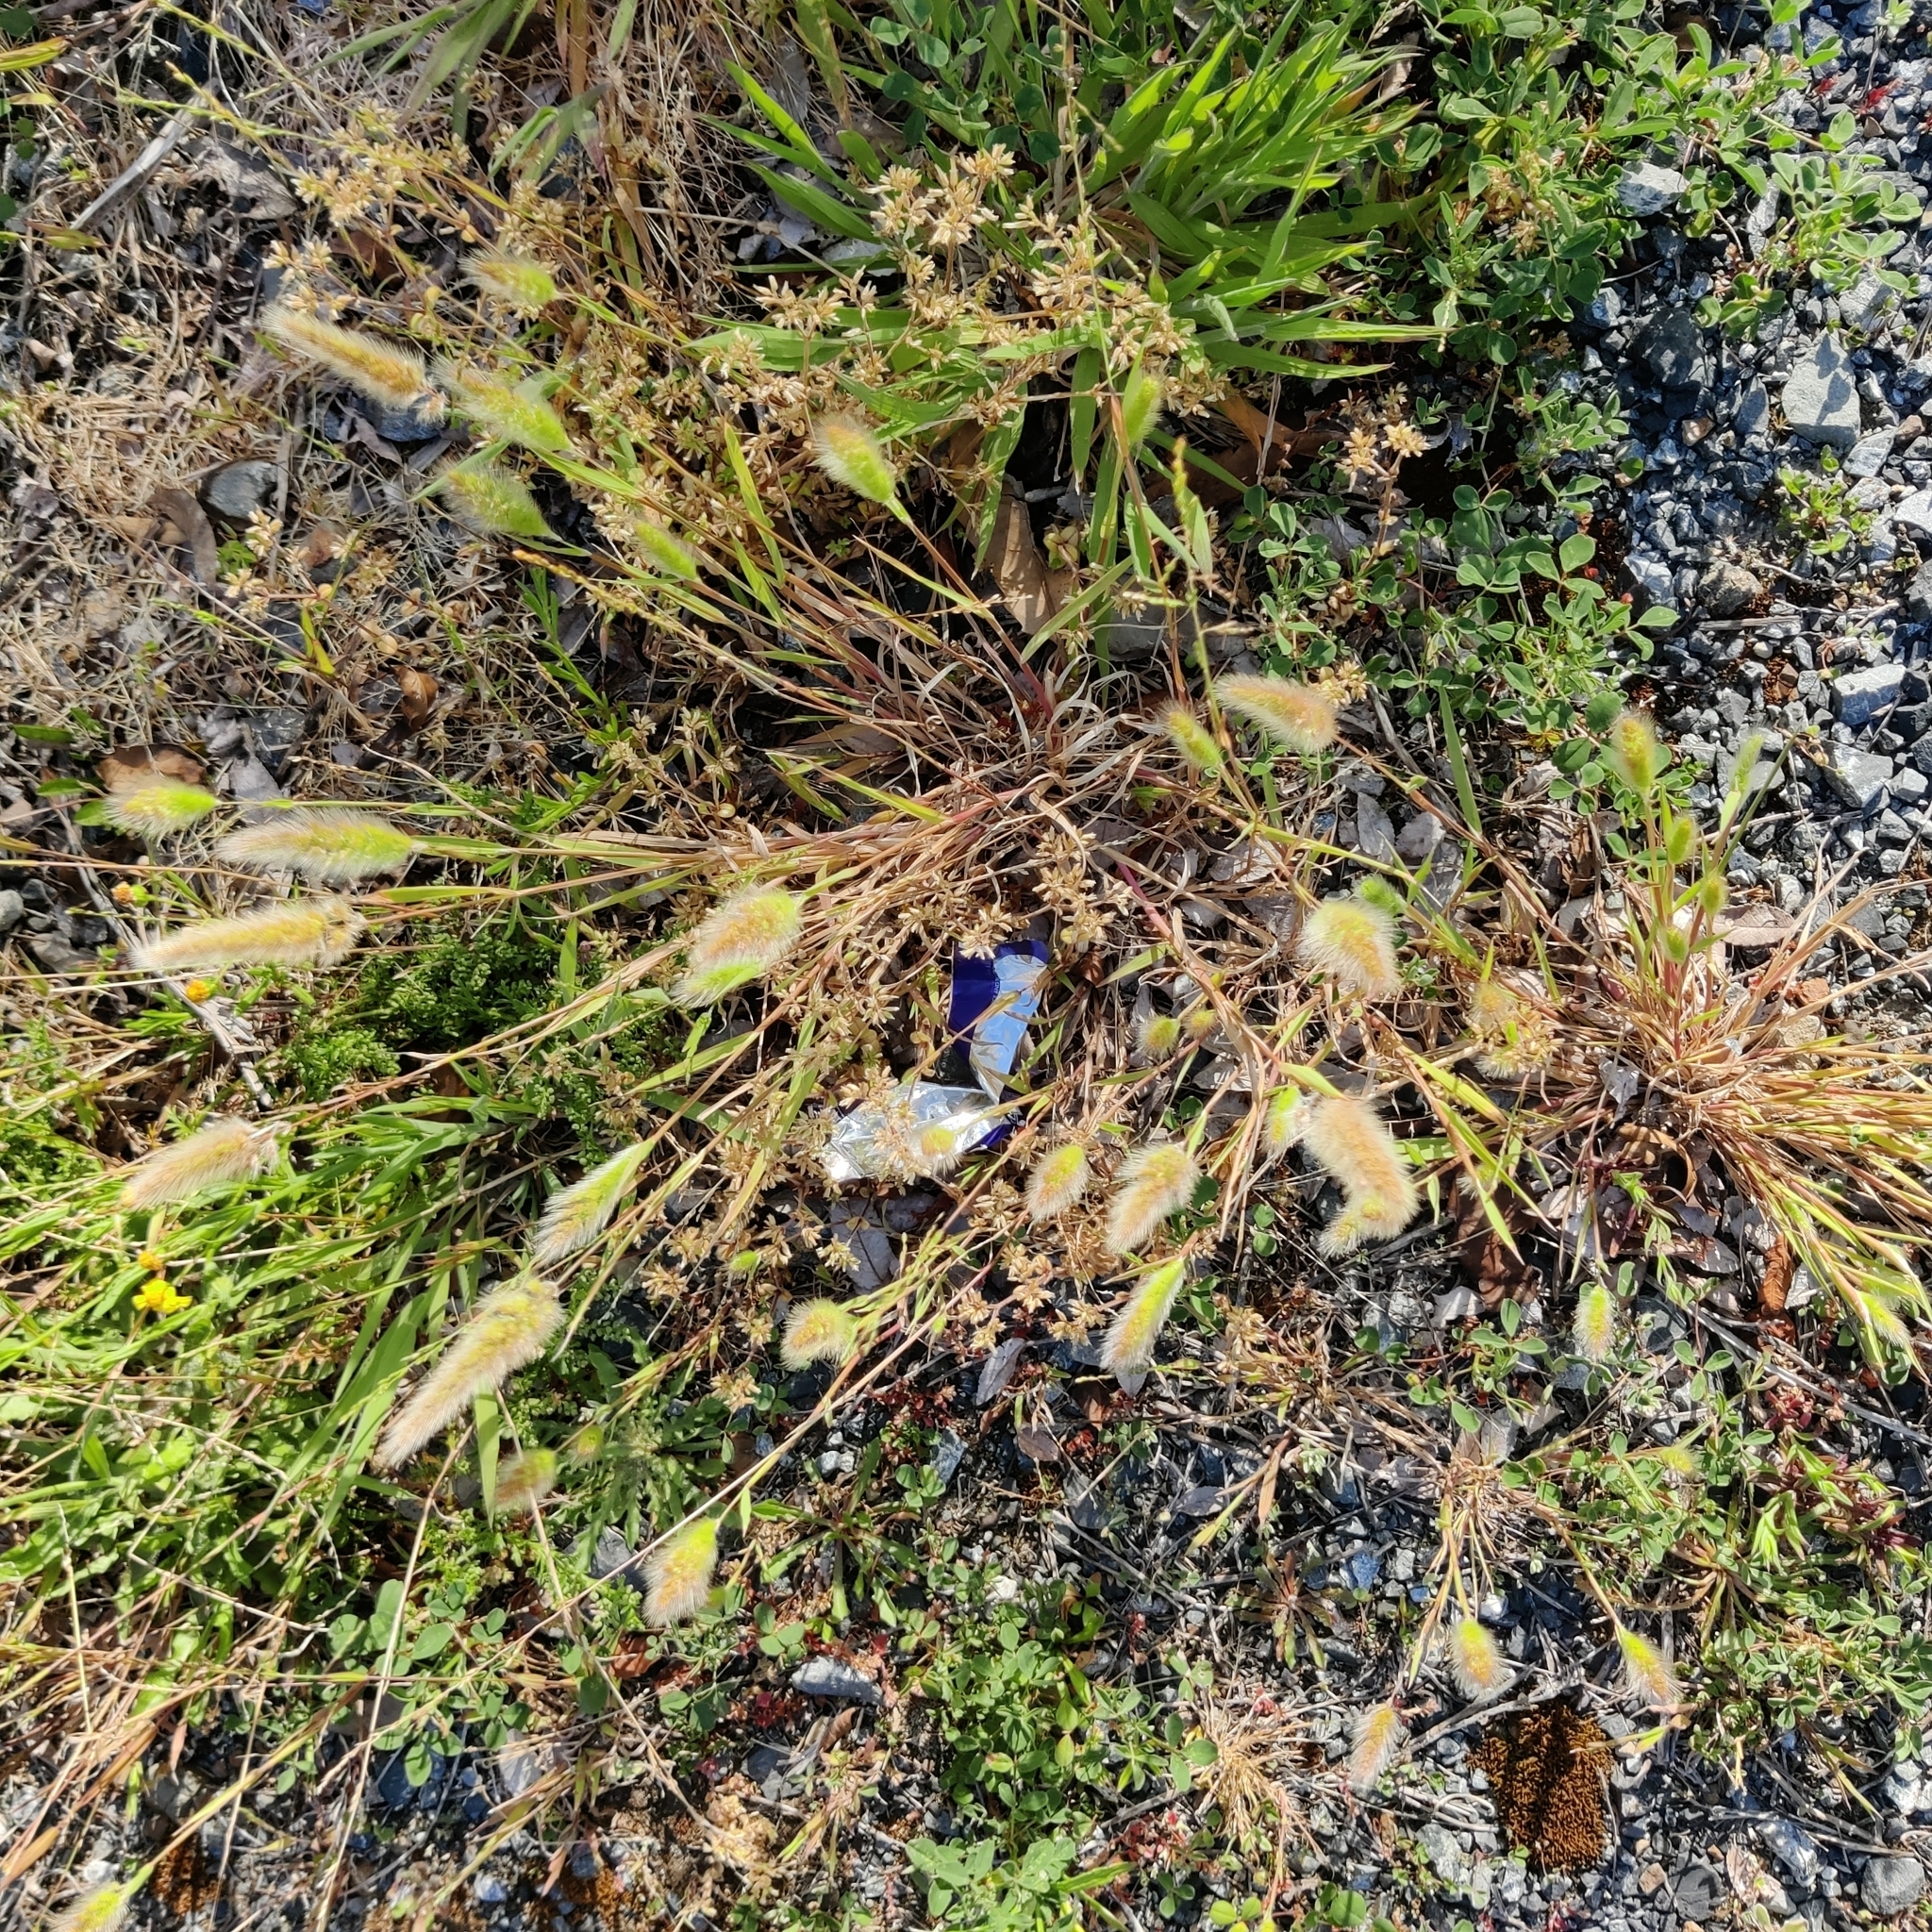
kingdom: Plantae
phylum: Tracheophyta
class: Liliopsida
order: Poales
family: Poaceae
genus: Polypogon
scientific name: Polypogon monspeliensis
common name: Annual rabbitsfoot grass
